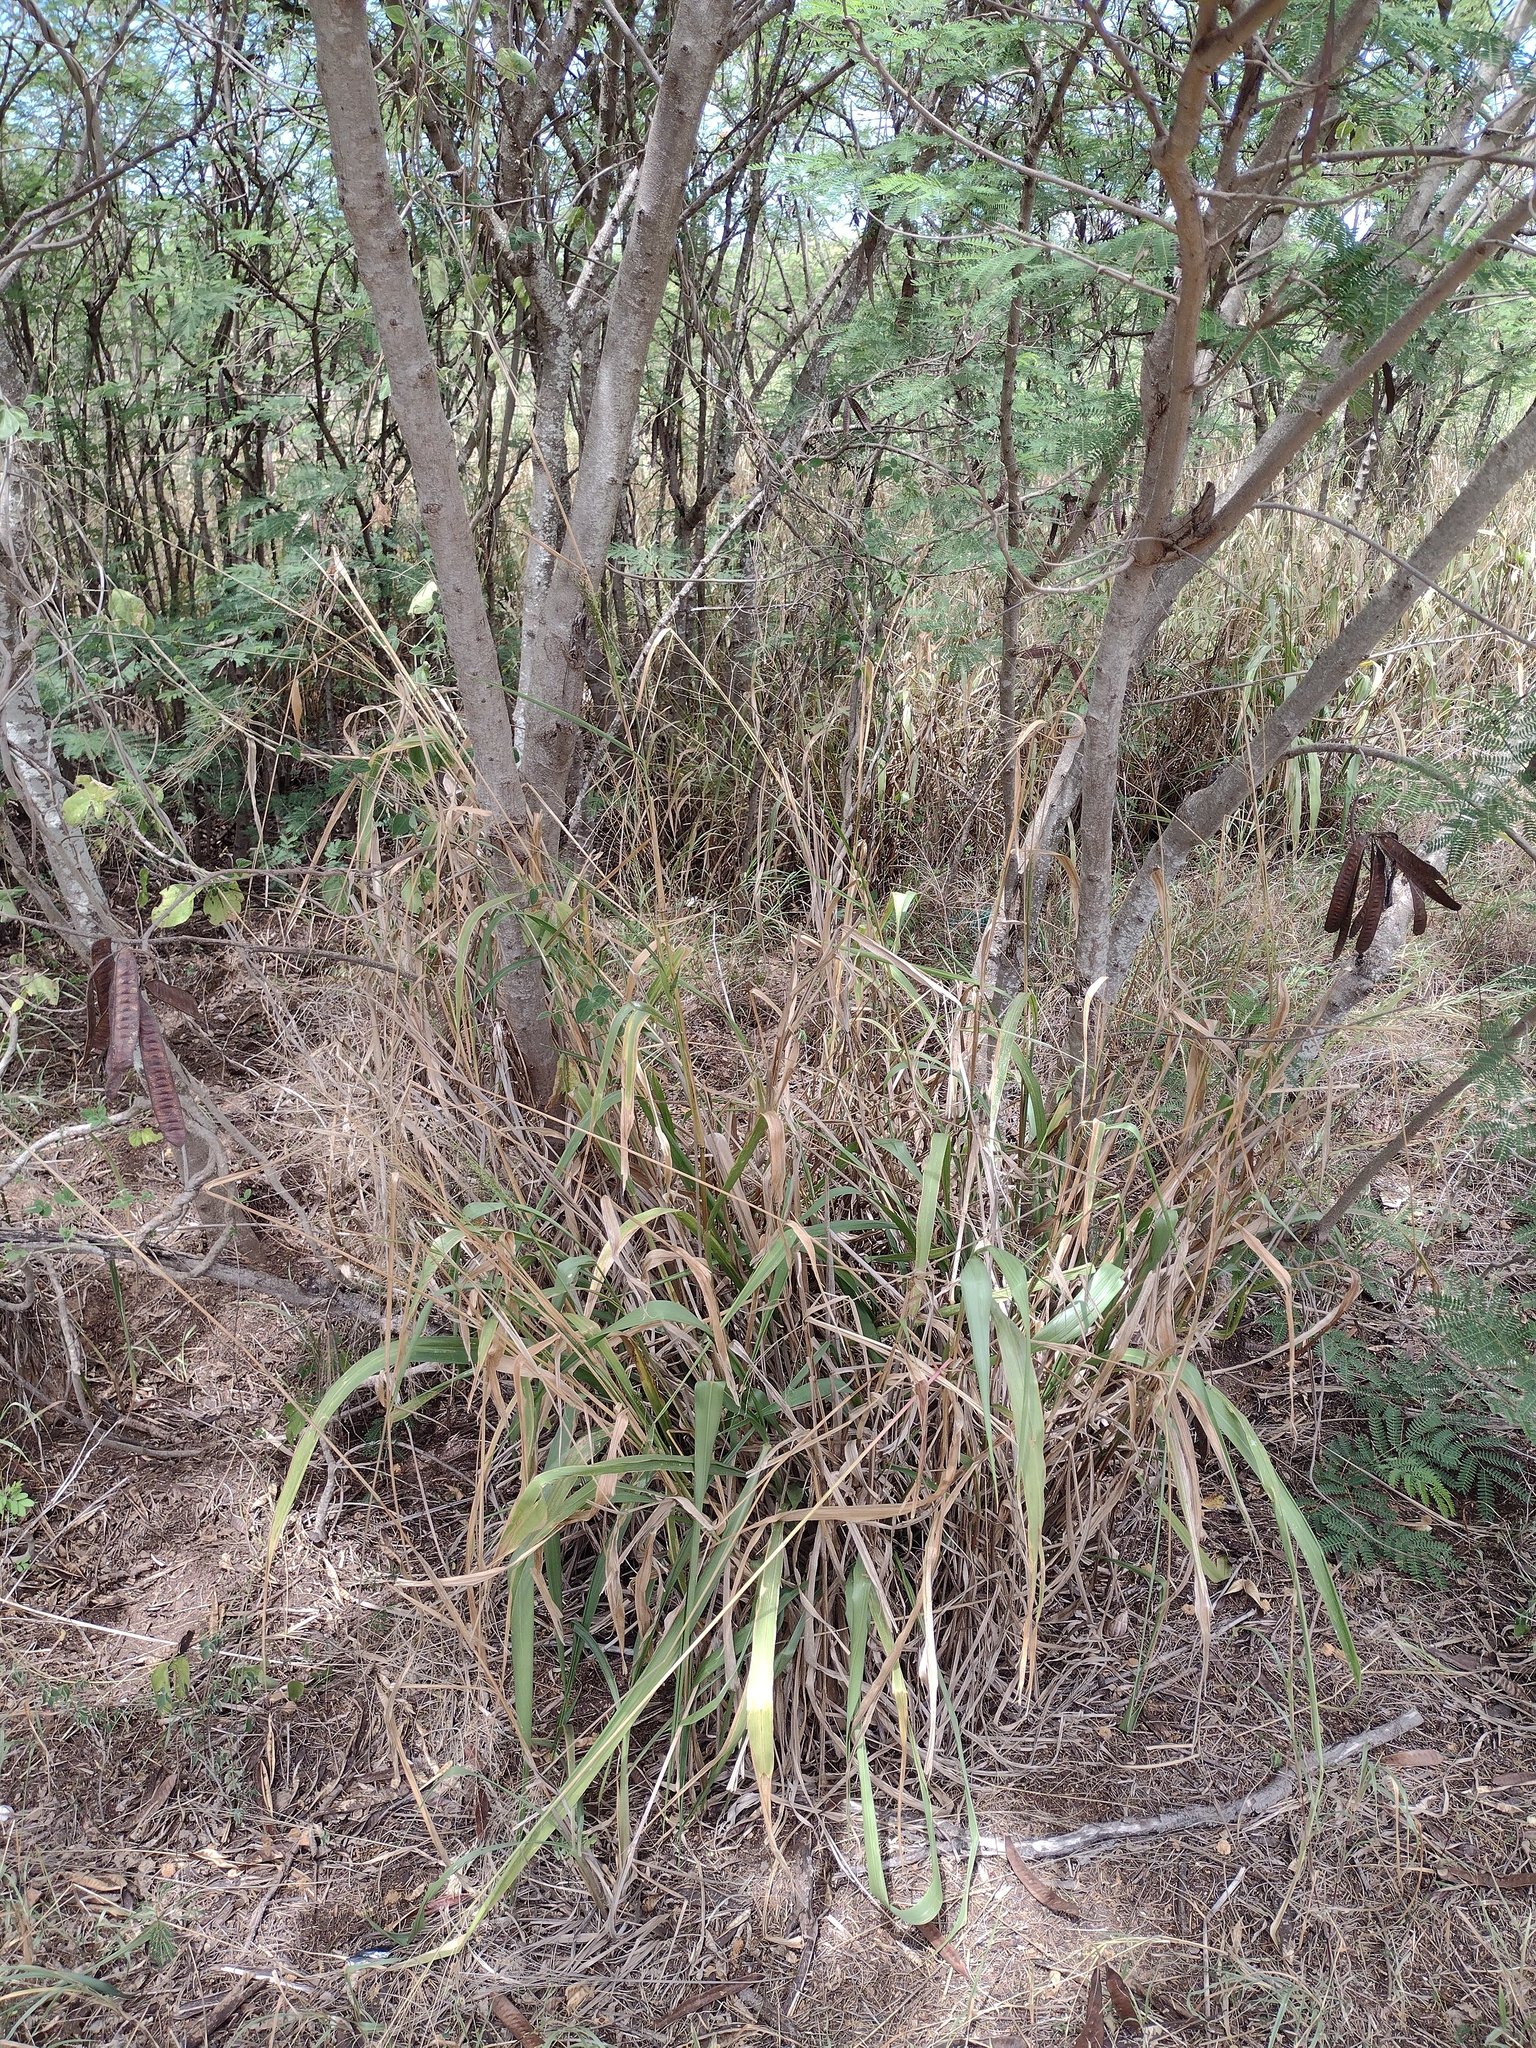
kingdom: Plantae
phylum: Tracheophyta
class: Liliopsida
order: Poales
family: Poaceae
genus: Megathyrsus
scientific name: Megathyrsus maximus
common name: Guineagrass
